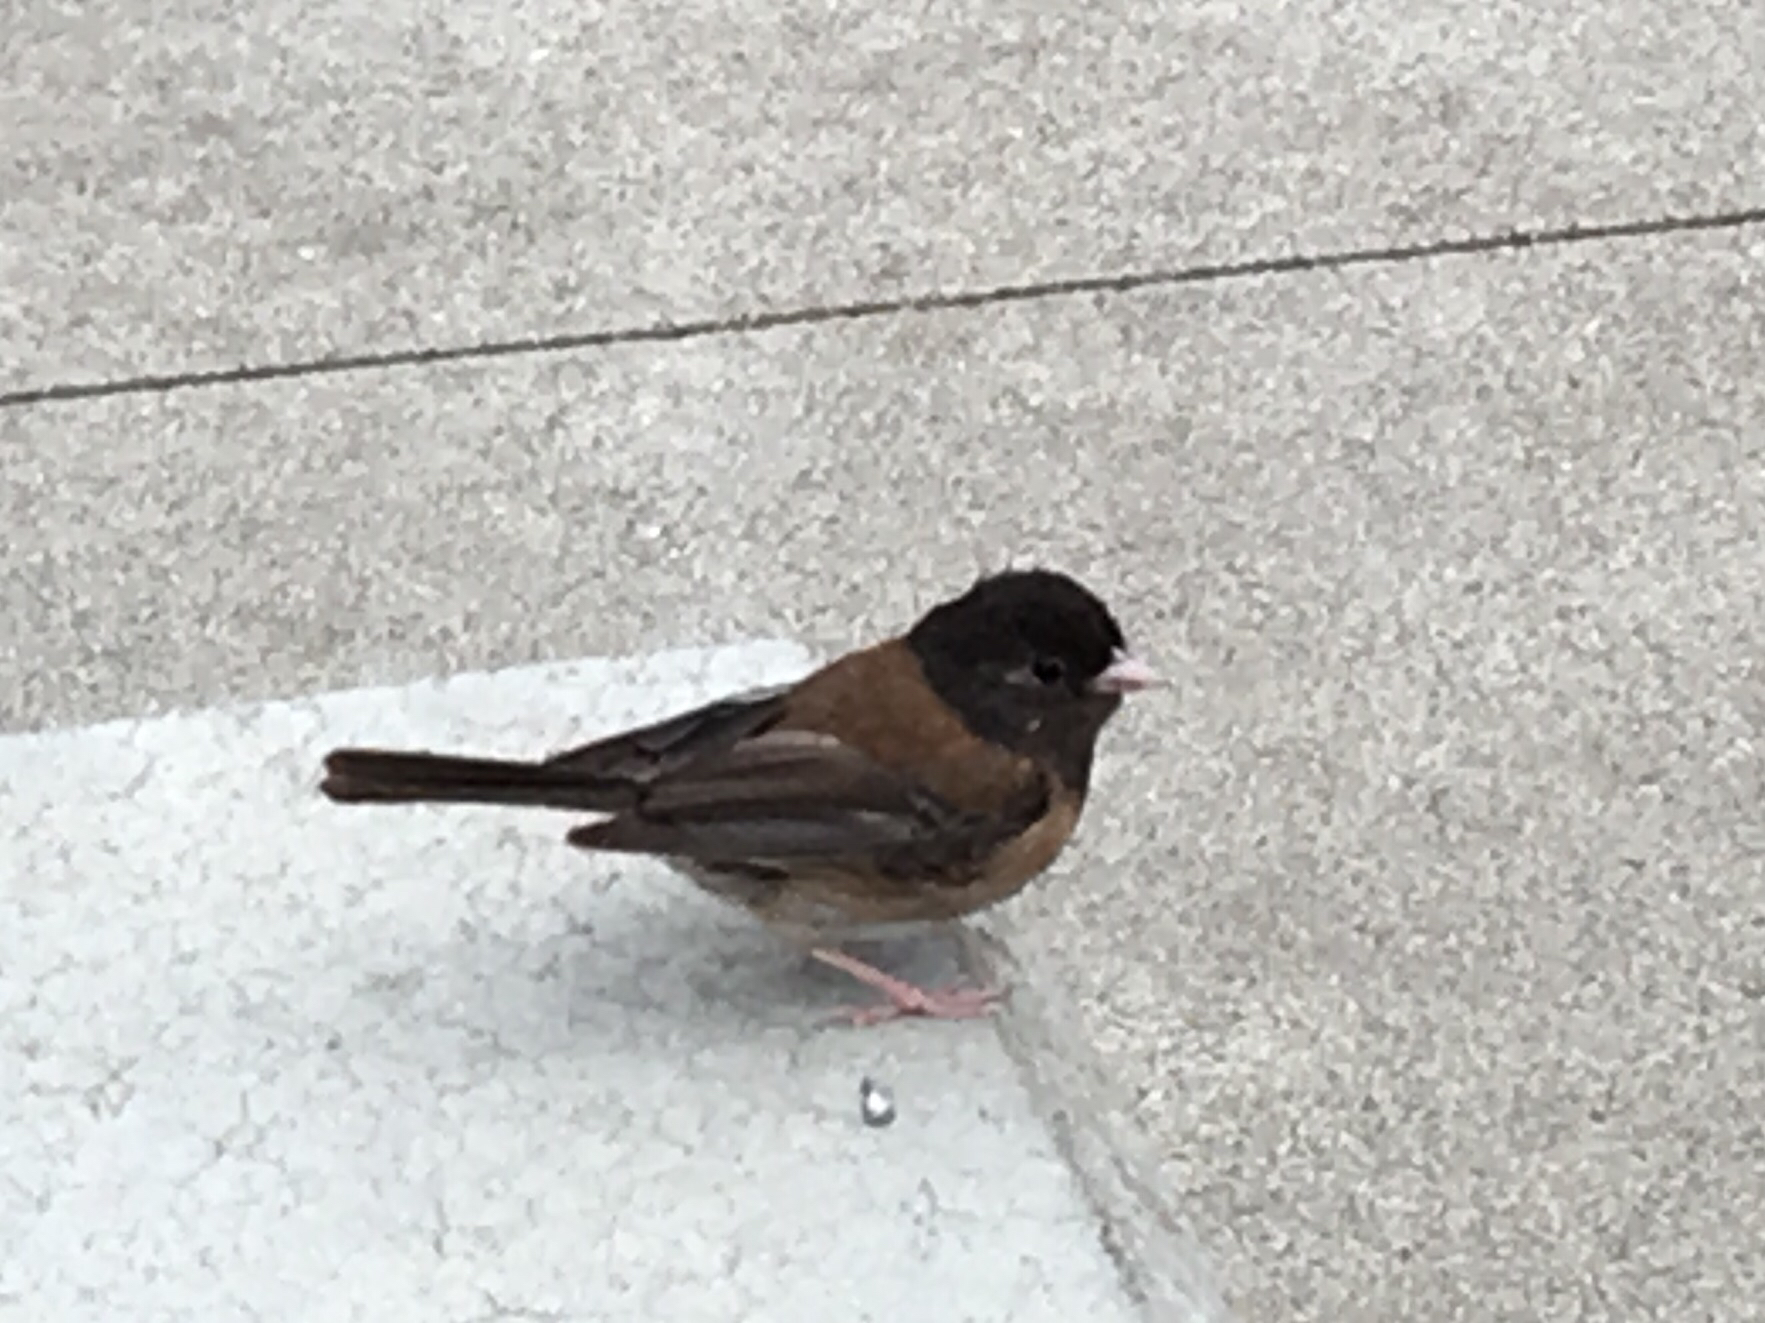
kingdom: Animalia
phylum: Chordata
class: Aves
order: Passeriformes
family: Passerellidae
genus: Junco
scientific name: Junco hyemalis
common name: Dark-eyed junco
